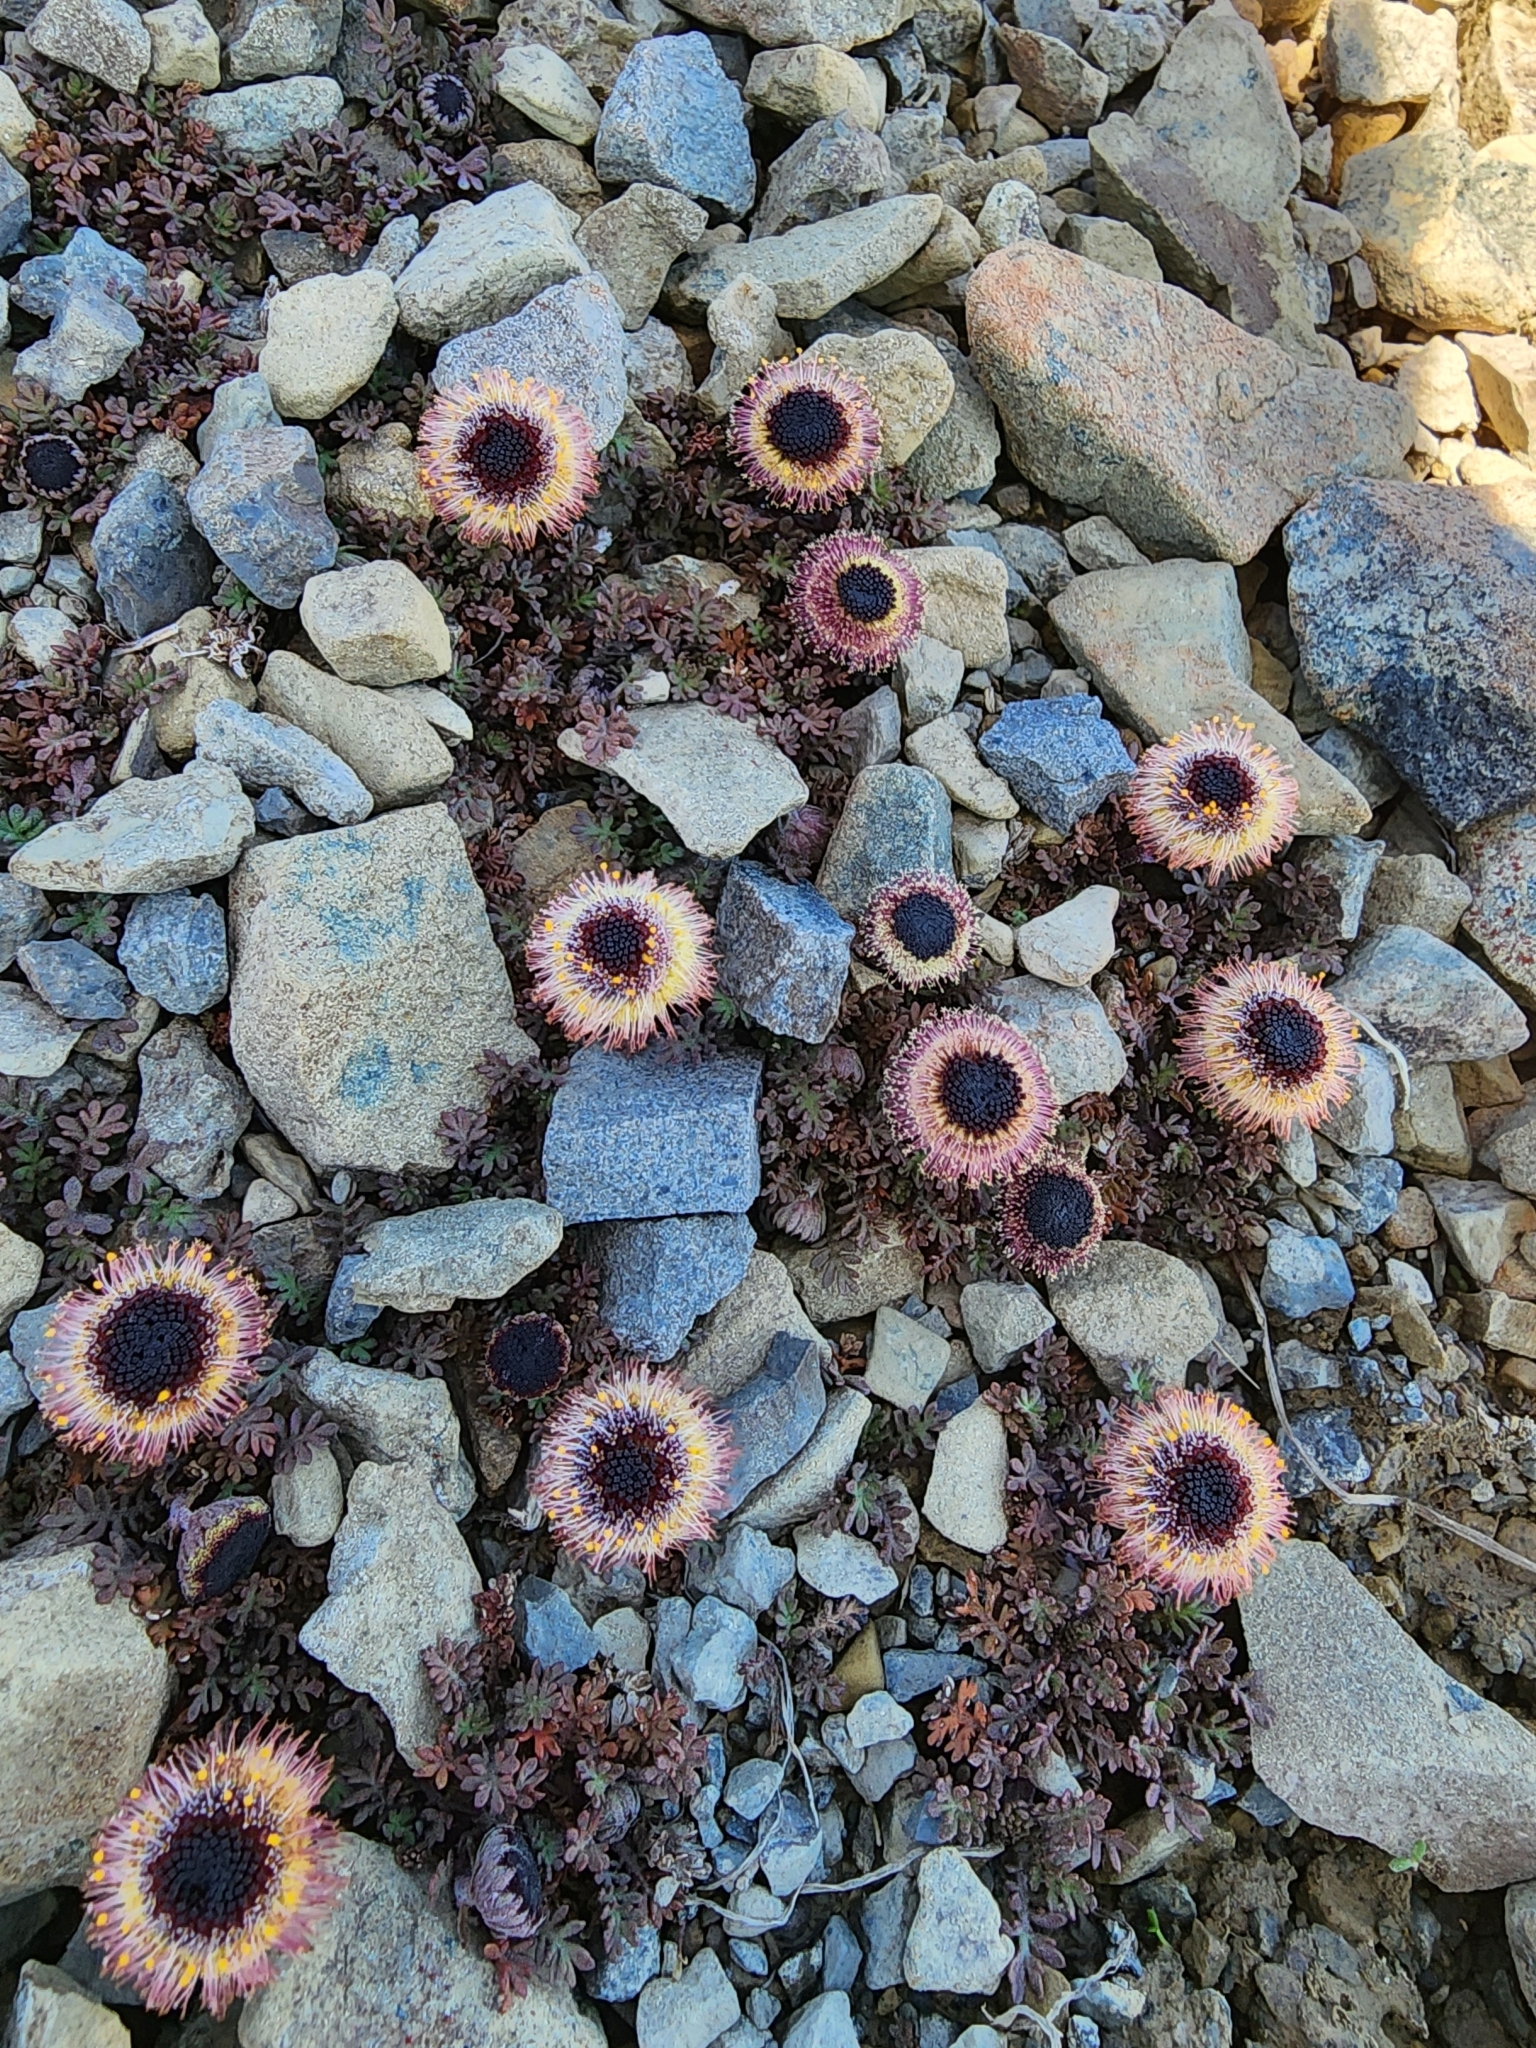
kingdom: Plantae
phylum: Tracheophyta
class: Magnoliopsida
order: Asterales
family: Asteraceae
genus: Leptinella
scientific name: Leptinella atrata
